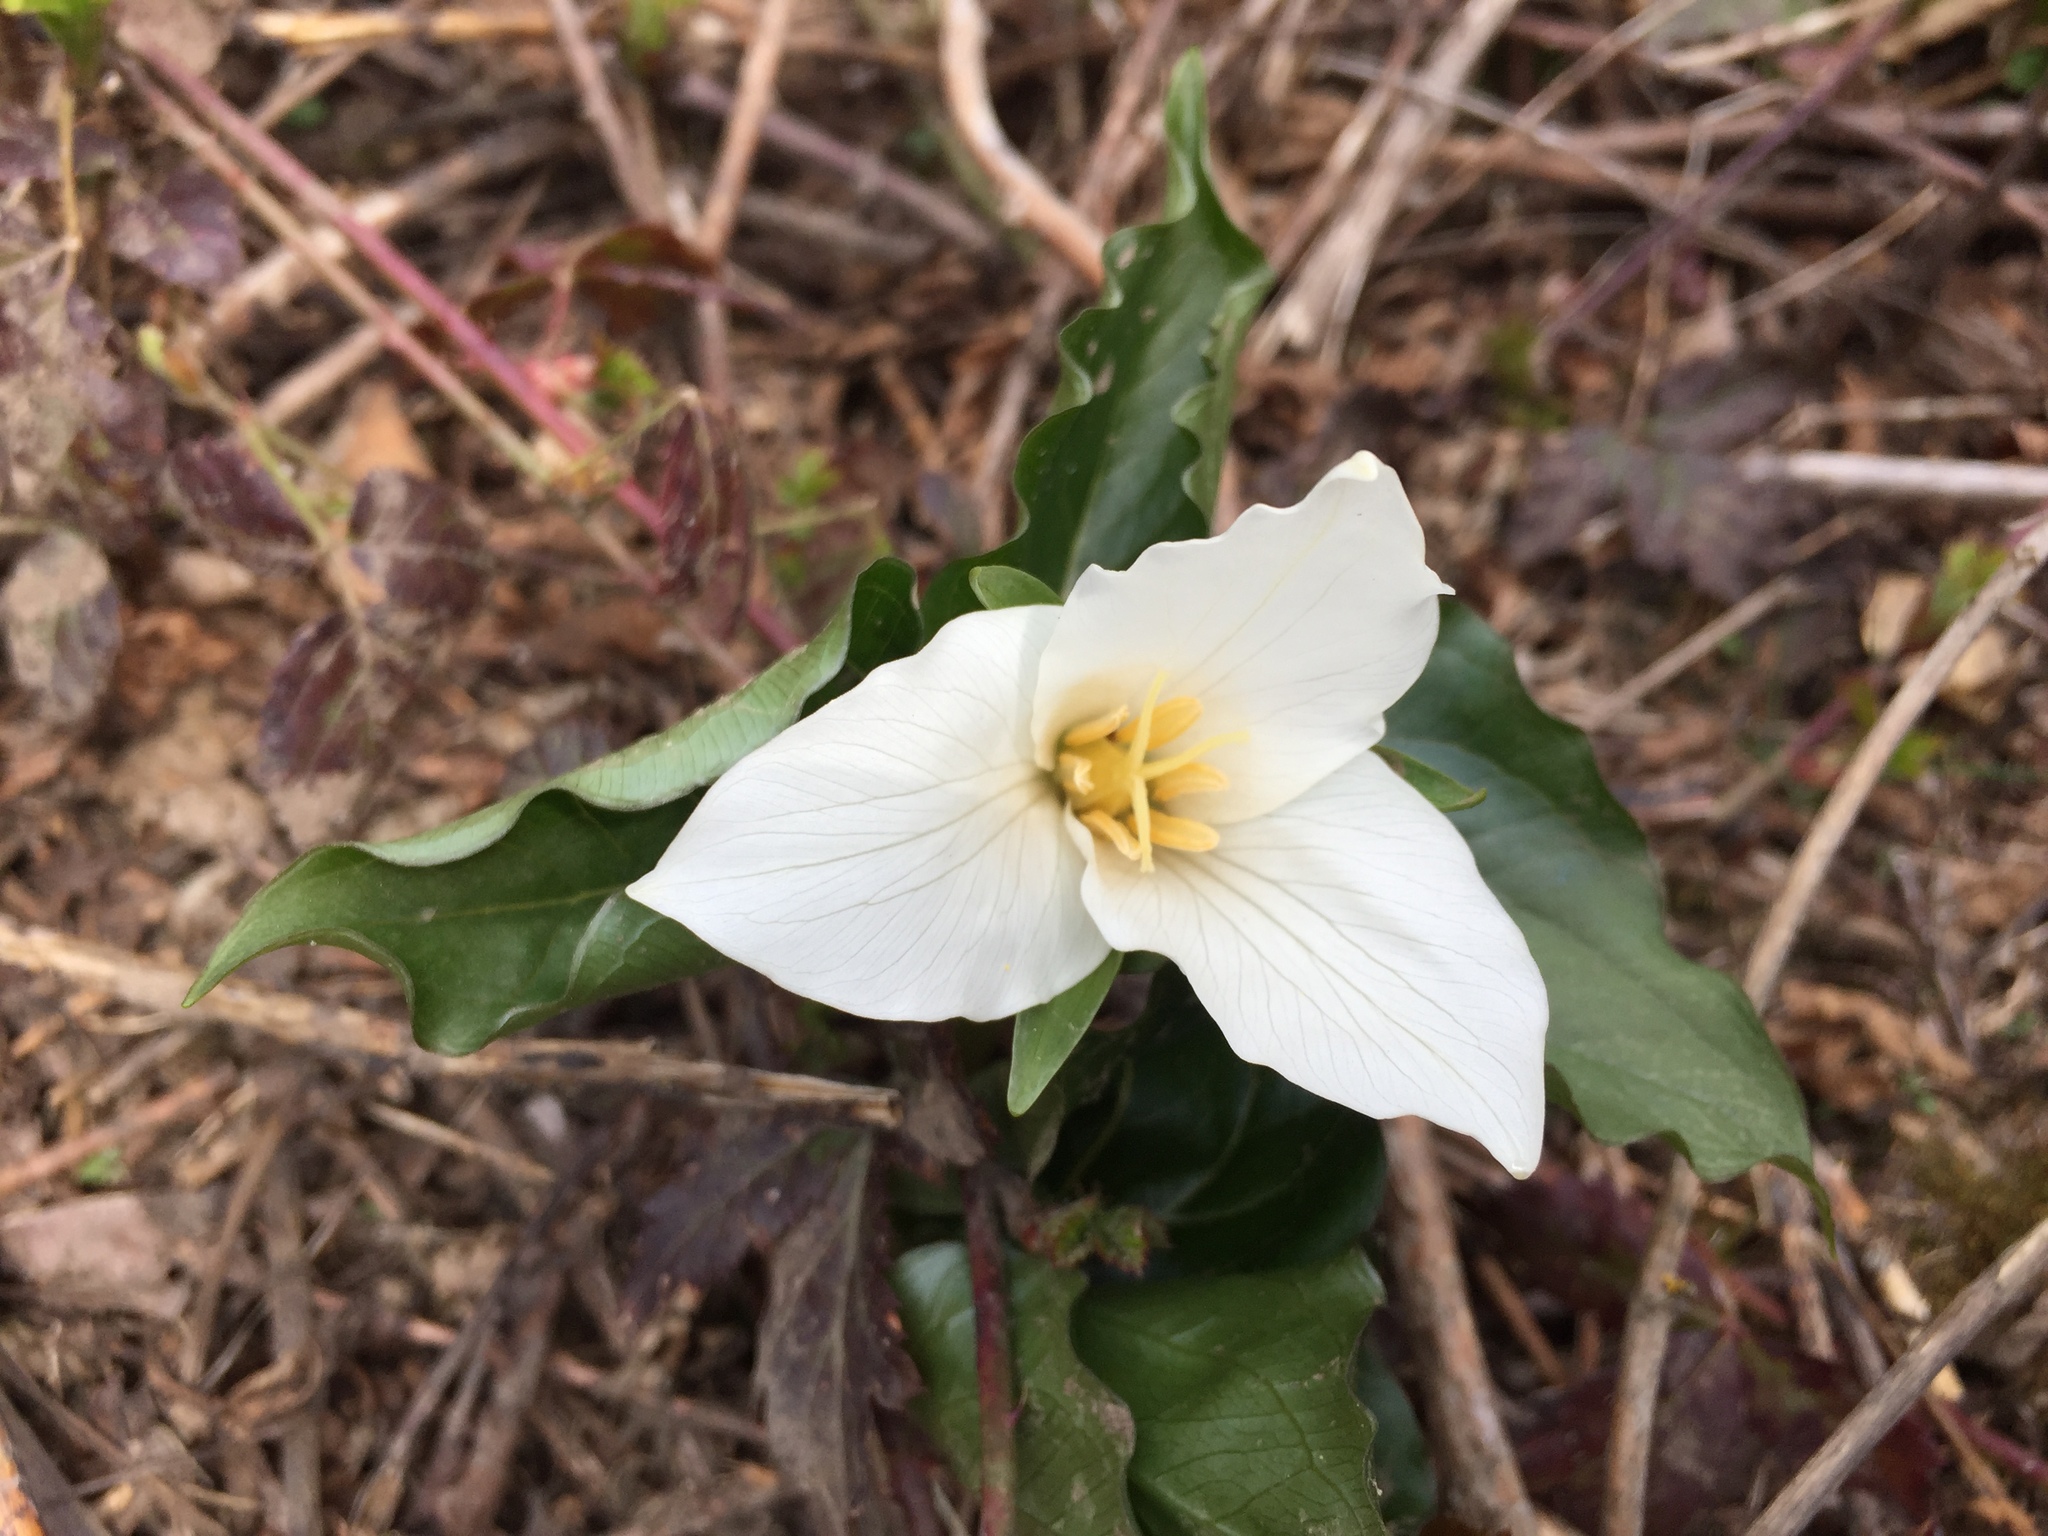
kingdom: Plantae
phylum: Tracheophyta
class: Liliopsida
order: Liliales
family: Melanthiaceae
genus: Trillium
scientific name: Trillium ovatum
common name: Pacific trillium
